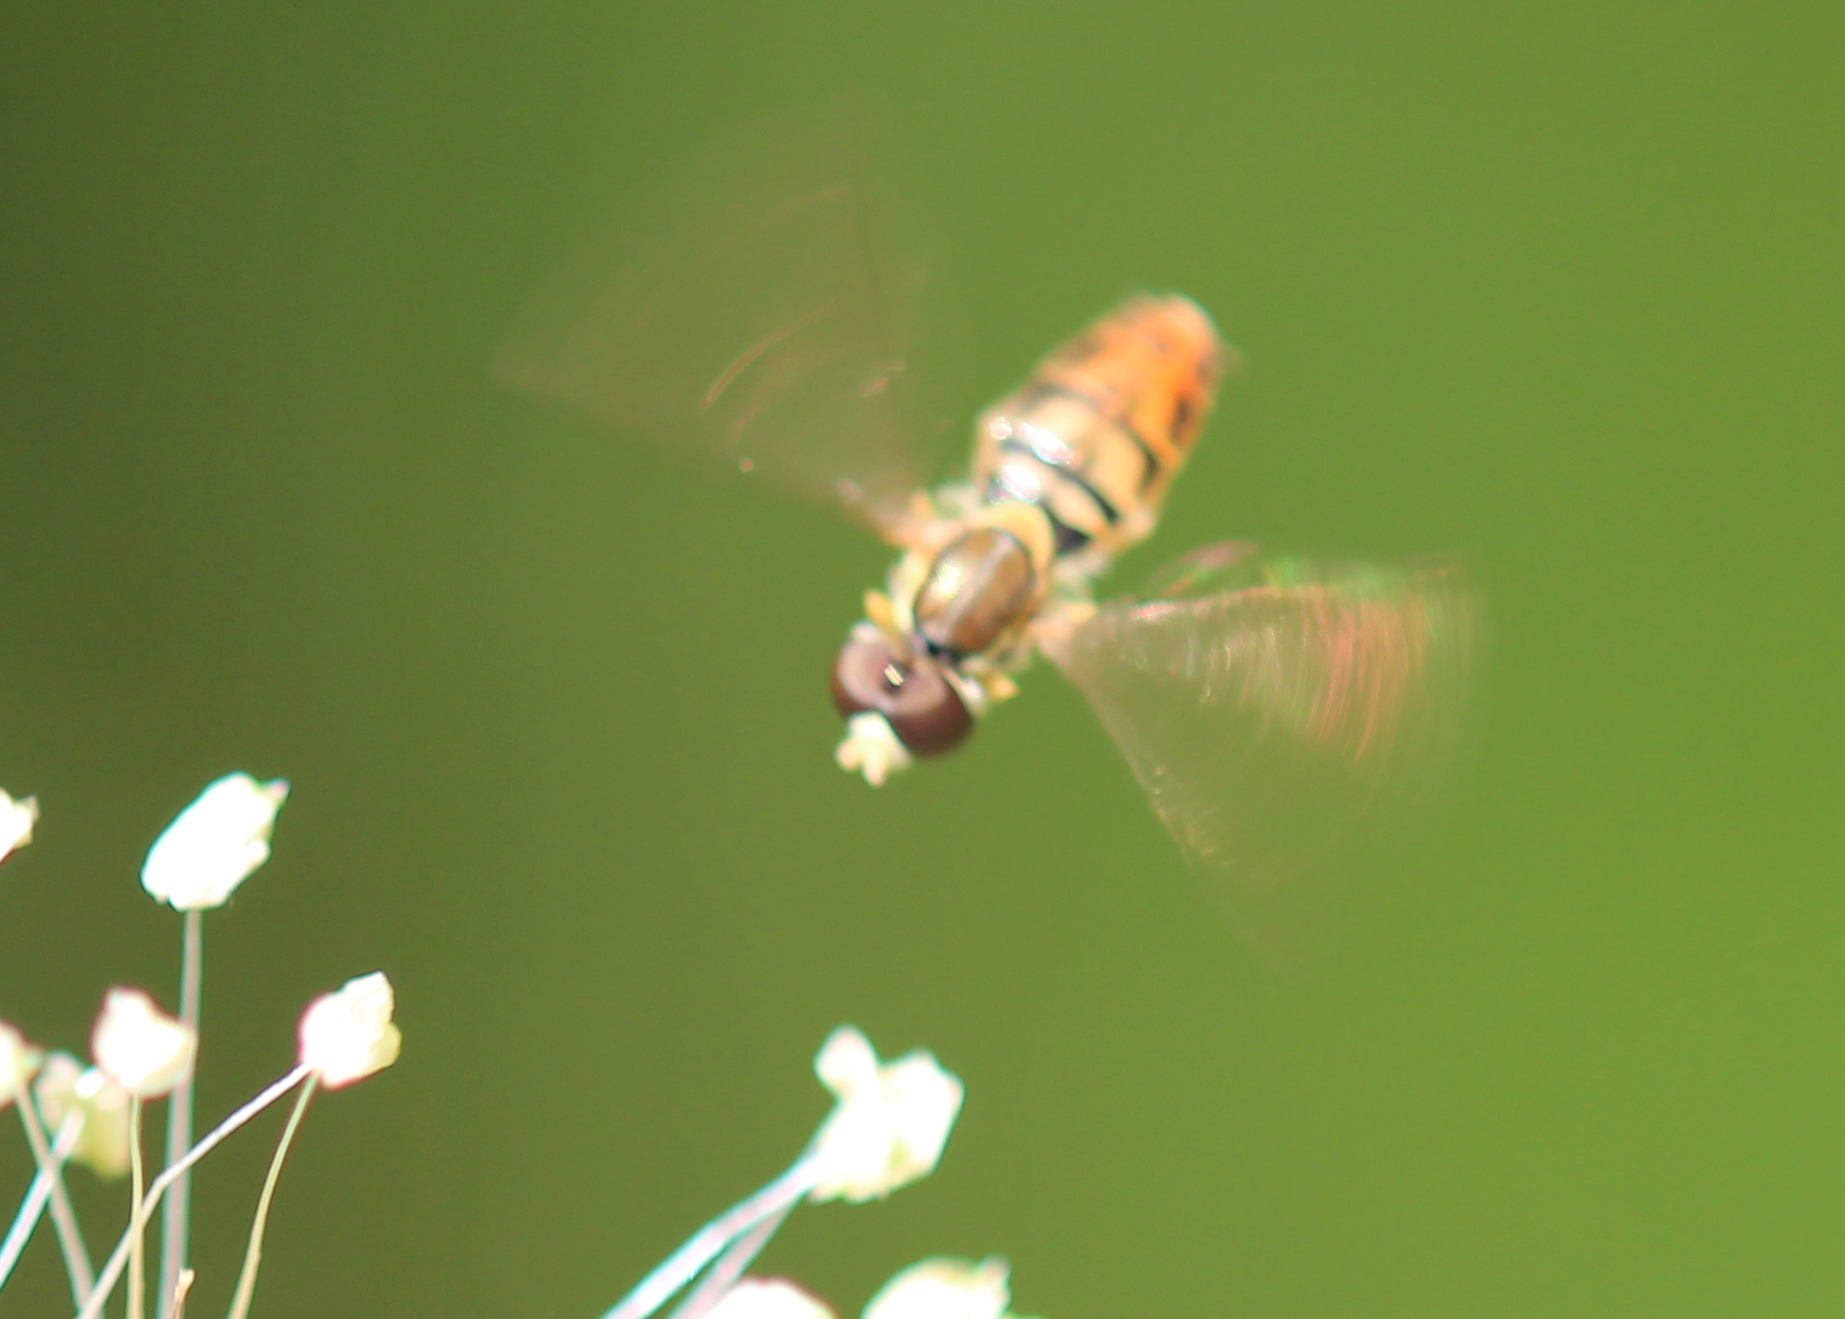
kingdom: Animalia
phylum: Arthropoda
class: Insecta
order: Diptera
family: Syrphidae
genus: Toxomerus
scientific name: Toxomerus marginatus
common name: Syrphid fly
